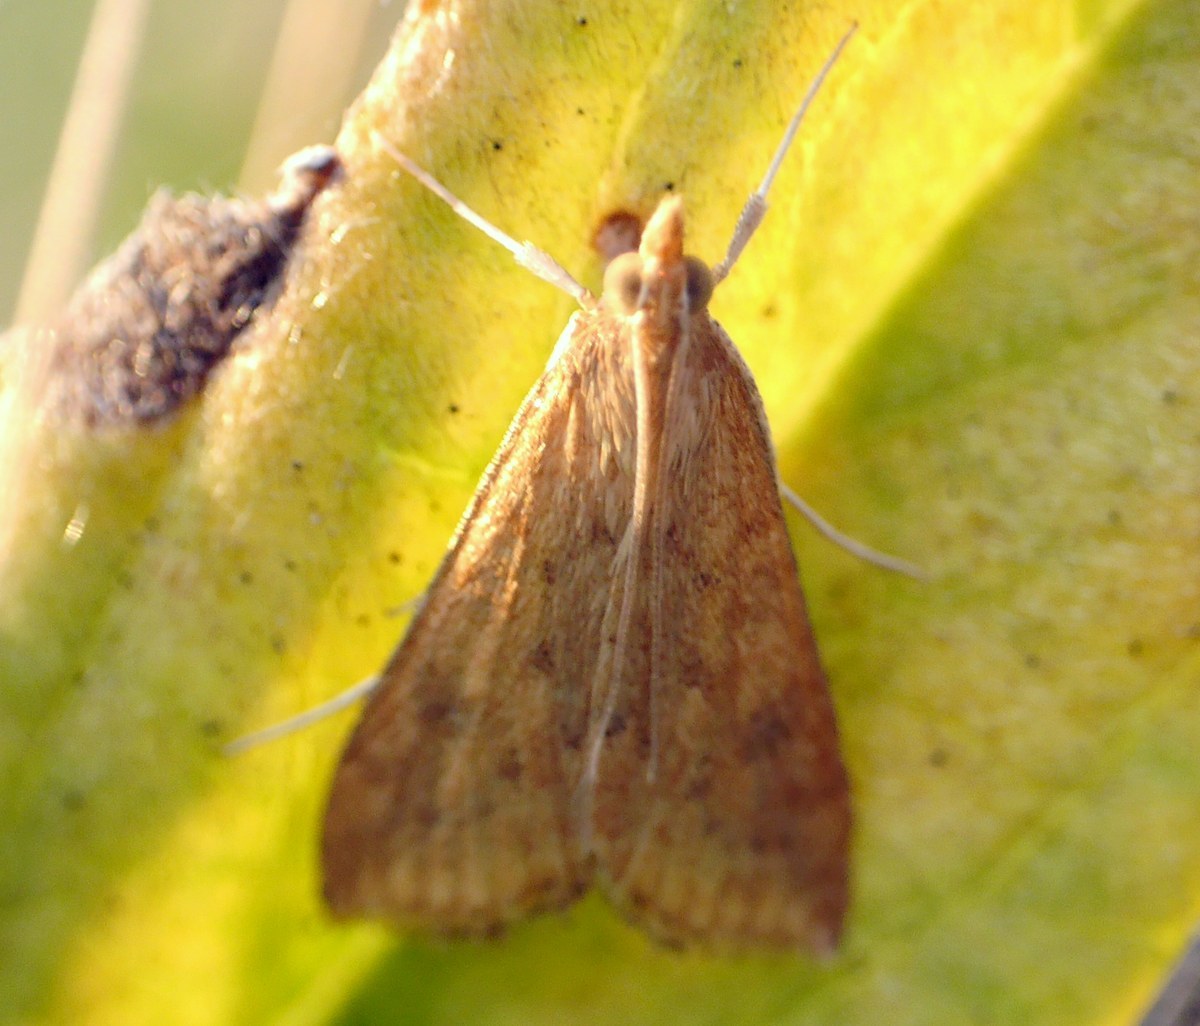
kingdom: Animalia
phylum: Arthropoda
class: Insecta
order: Lepidoptera
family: Crambidae
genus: Udea
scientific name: Udea ferrugalis
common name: Rusty dot
